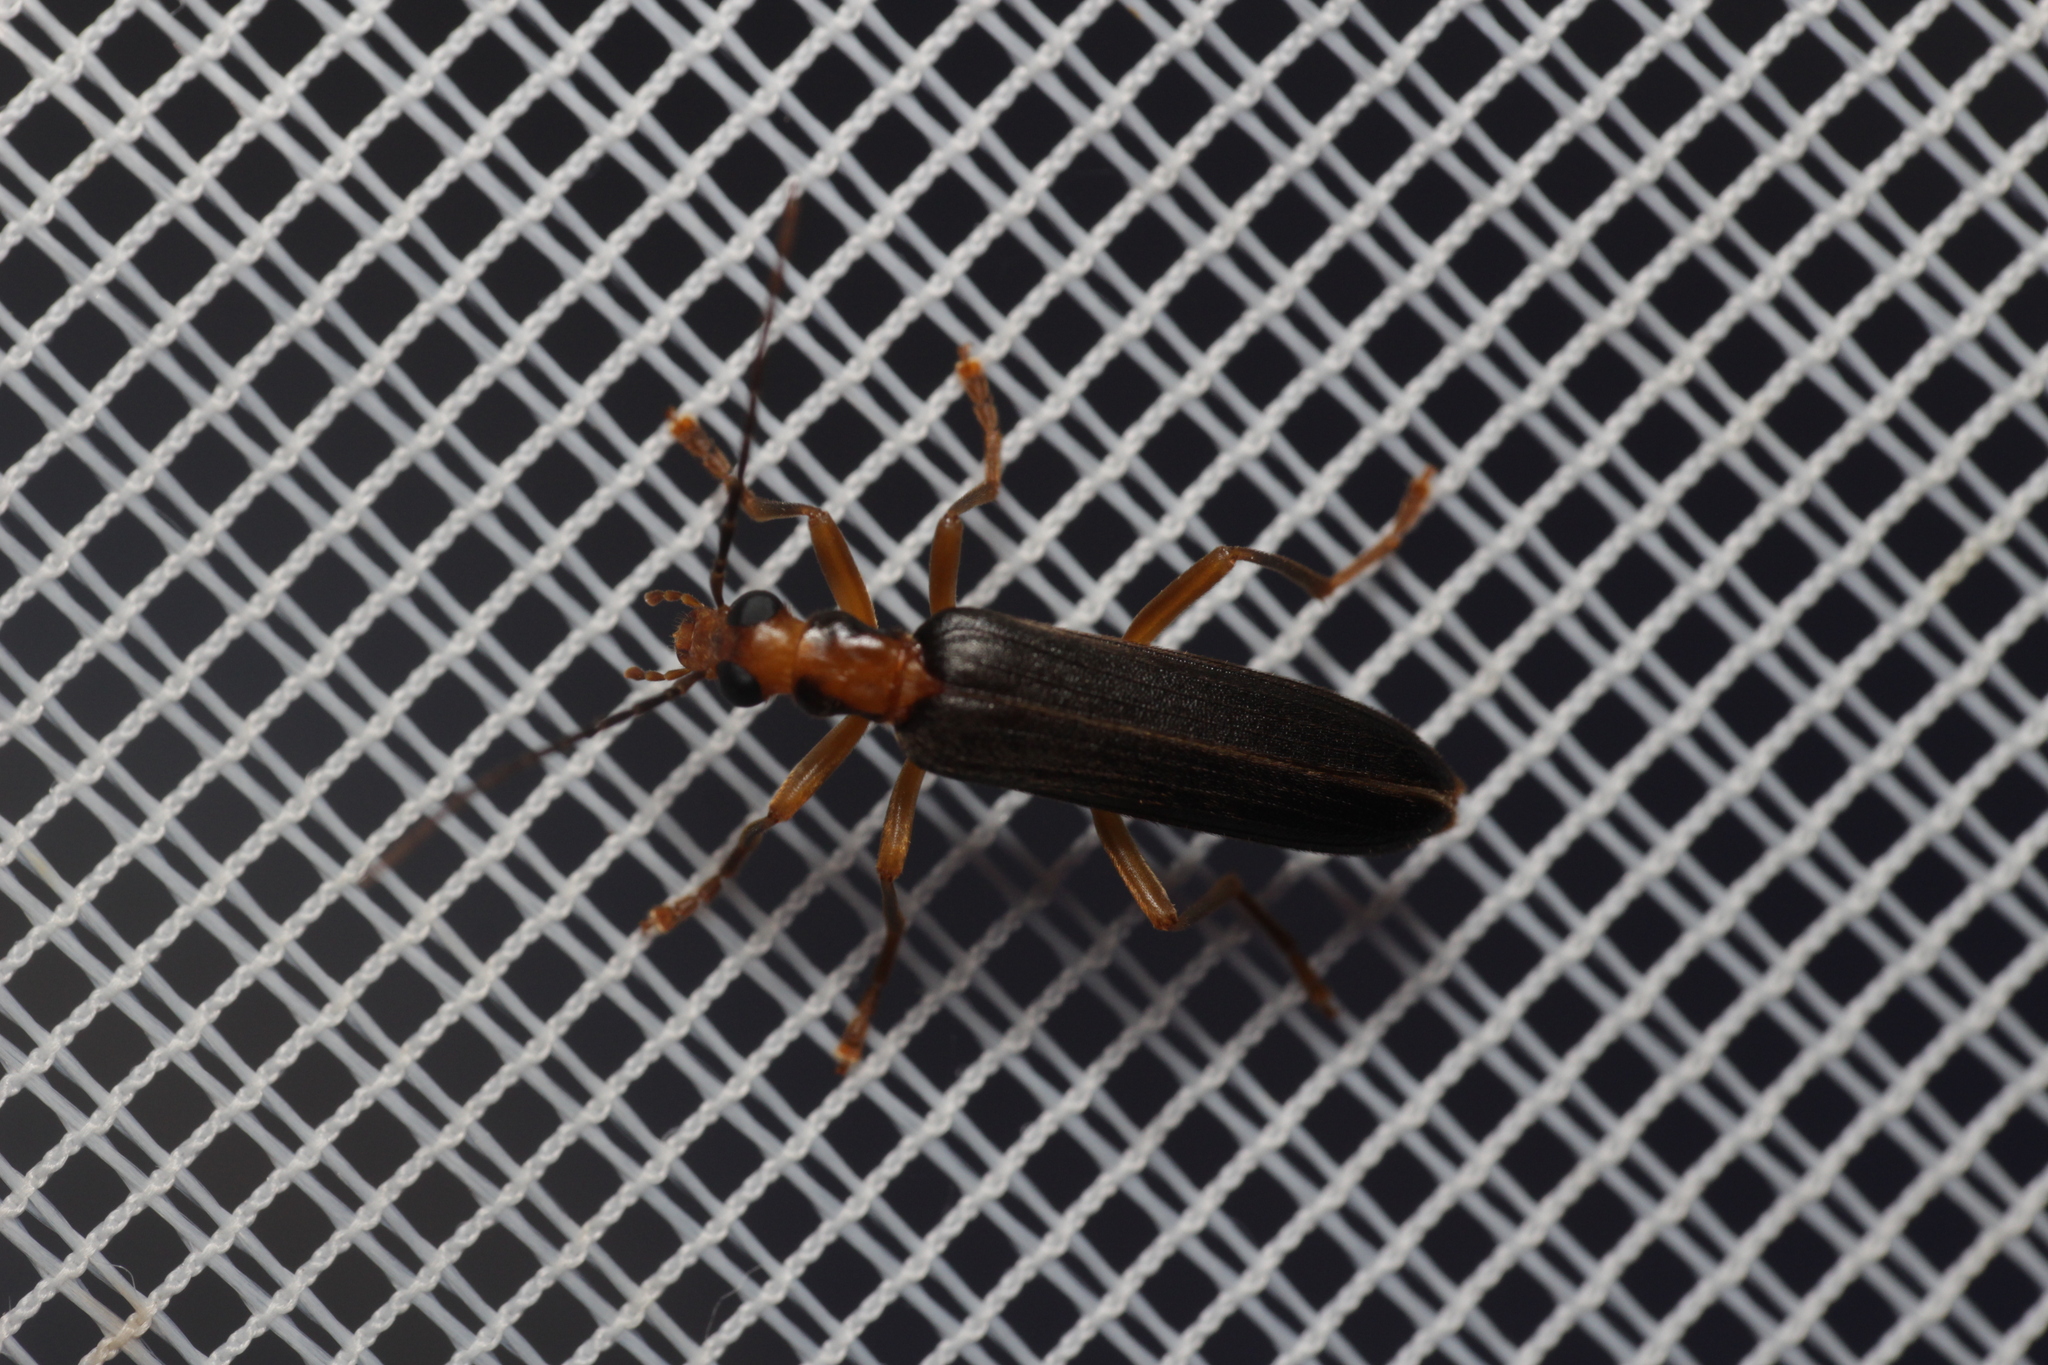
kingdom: Animalia
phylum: Arthropoda
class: Insecta
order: Coleoptera
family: Oedemeridae
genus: Nacerdes
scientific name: Nacerdes carniolica
